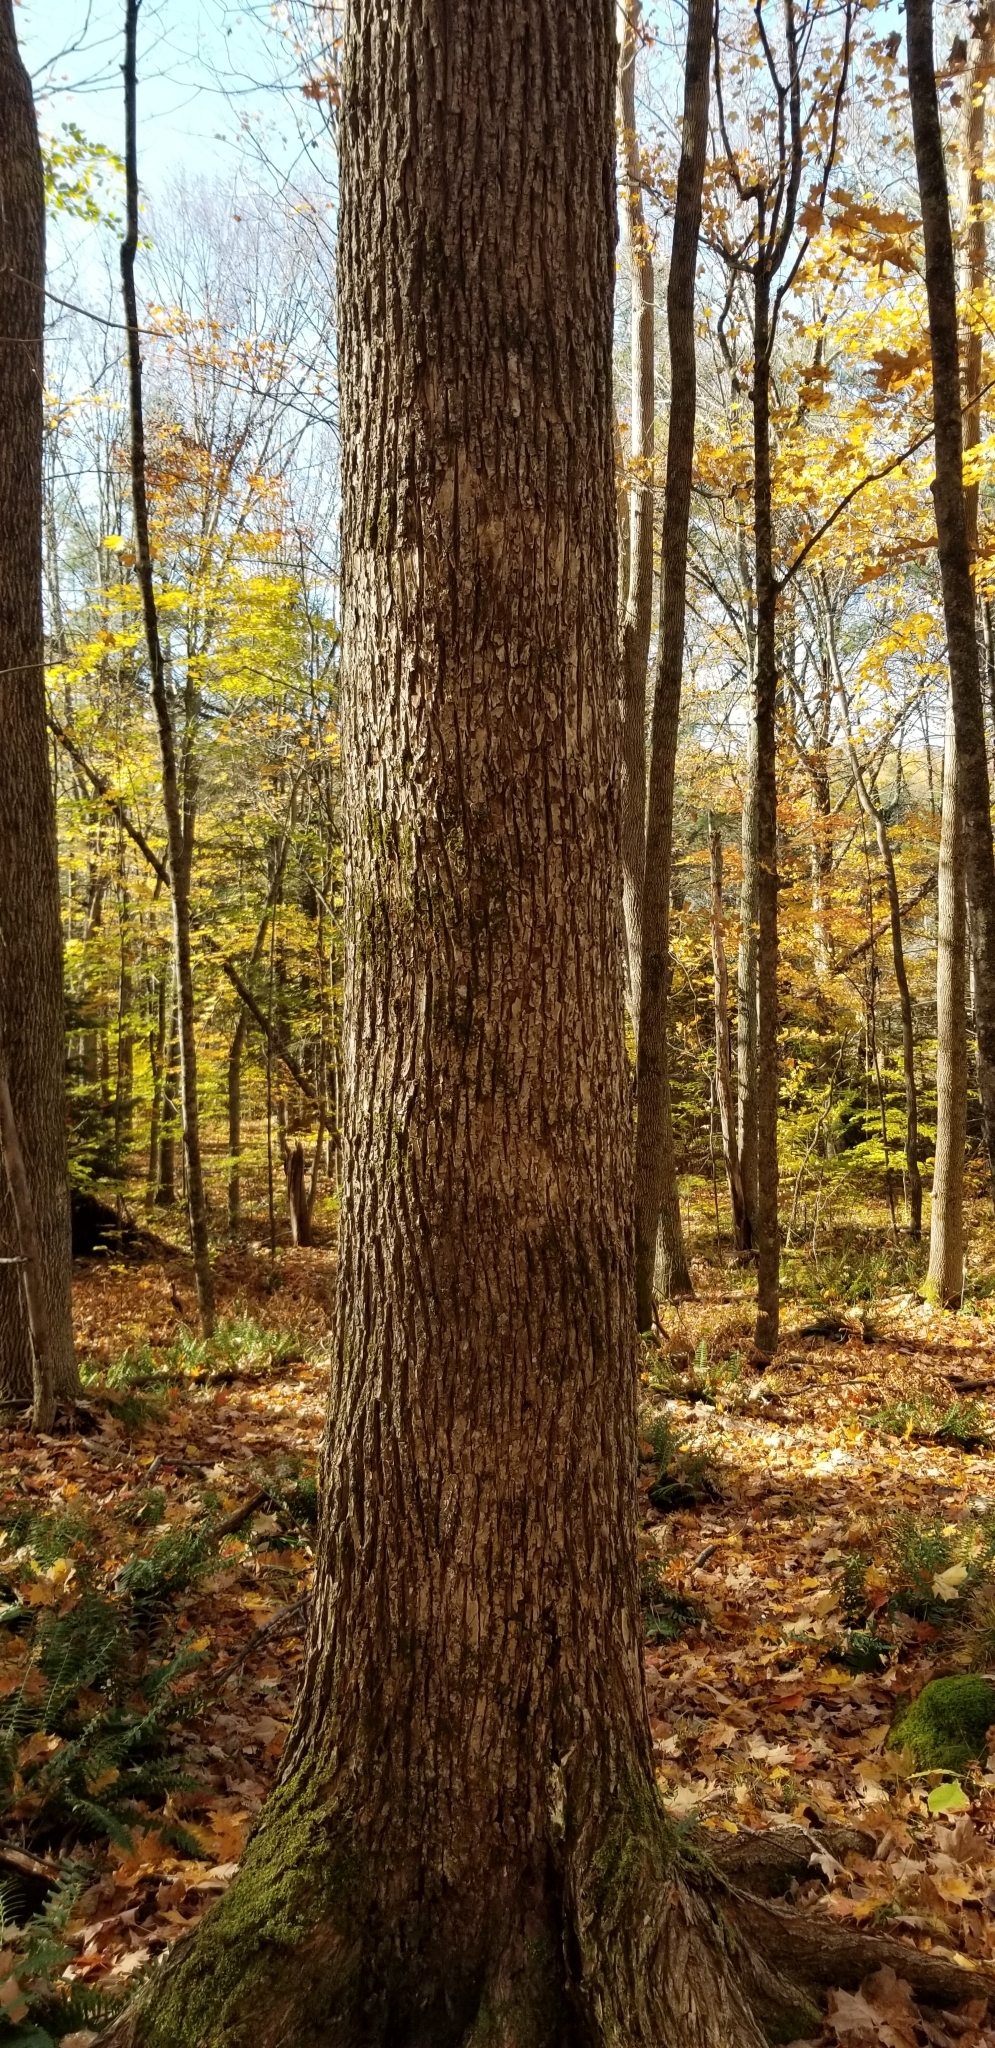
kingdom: Plantae
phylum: Tracheophyta
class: Magnoliopsida
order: Lamiales
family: Oleaceae
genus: Fraxinus
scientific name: Fraxinus nigra
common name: Black ash
